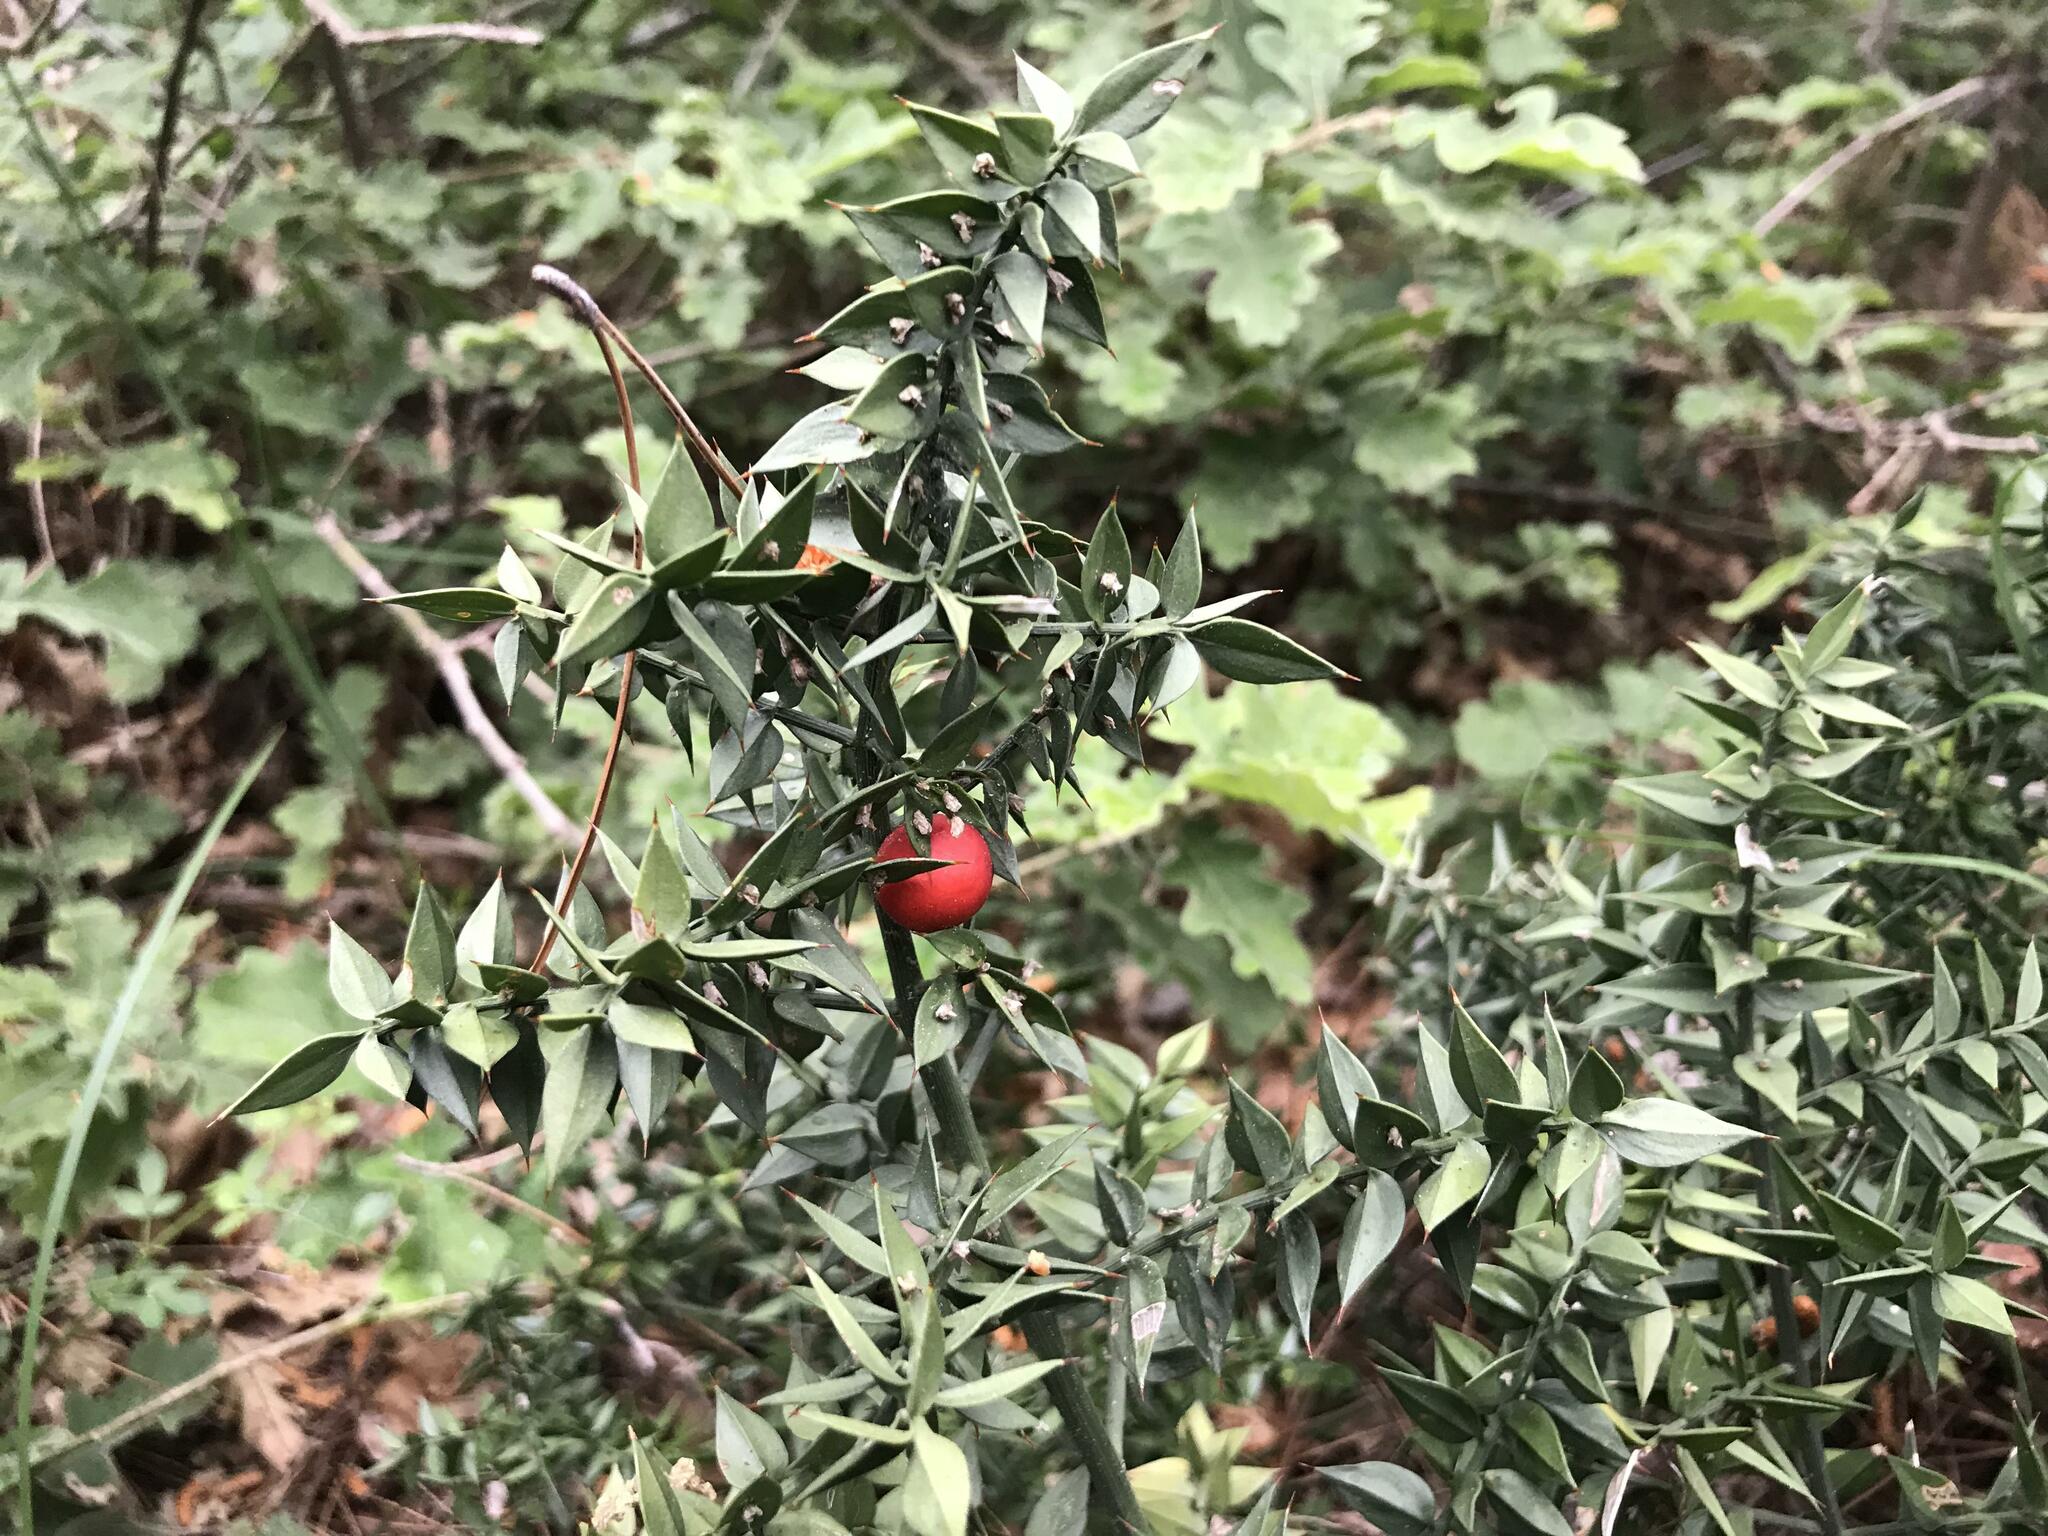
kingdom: Plantae
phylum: Tracheophyta
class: Liliopsida
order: Asparagales
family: Asparagaceae
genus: Ruscus
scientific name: Ruscus aculeatus
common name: Butcher's-broom
